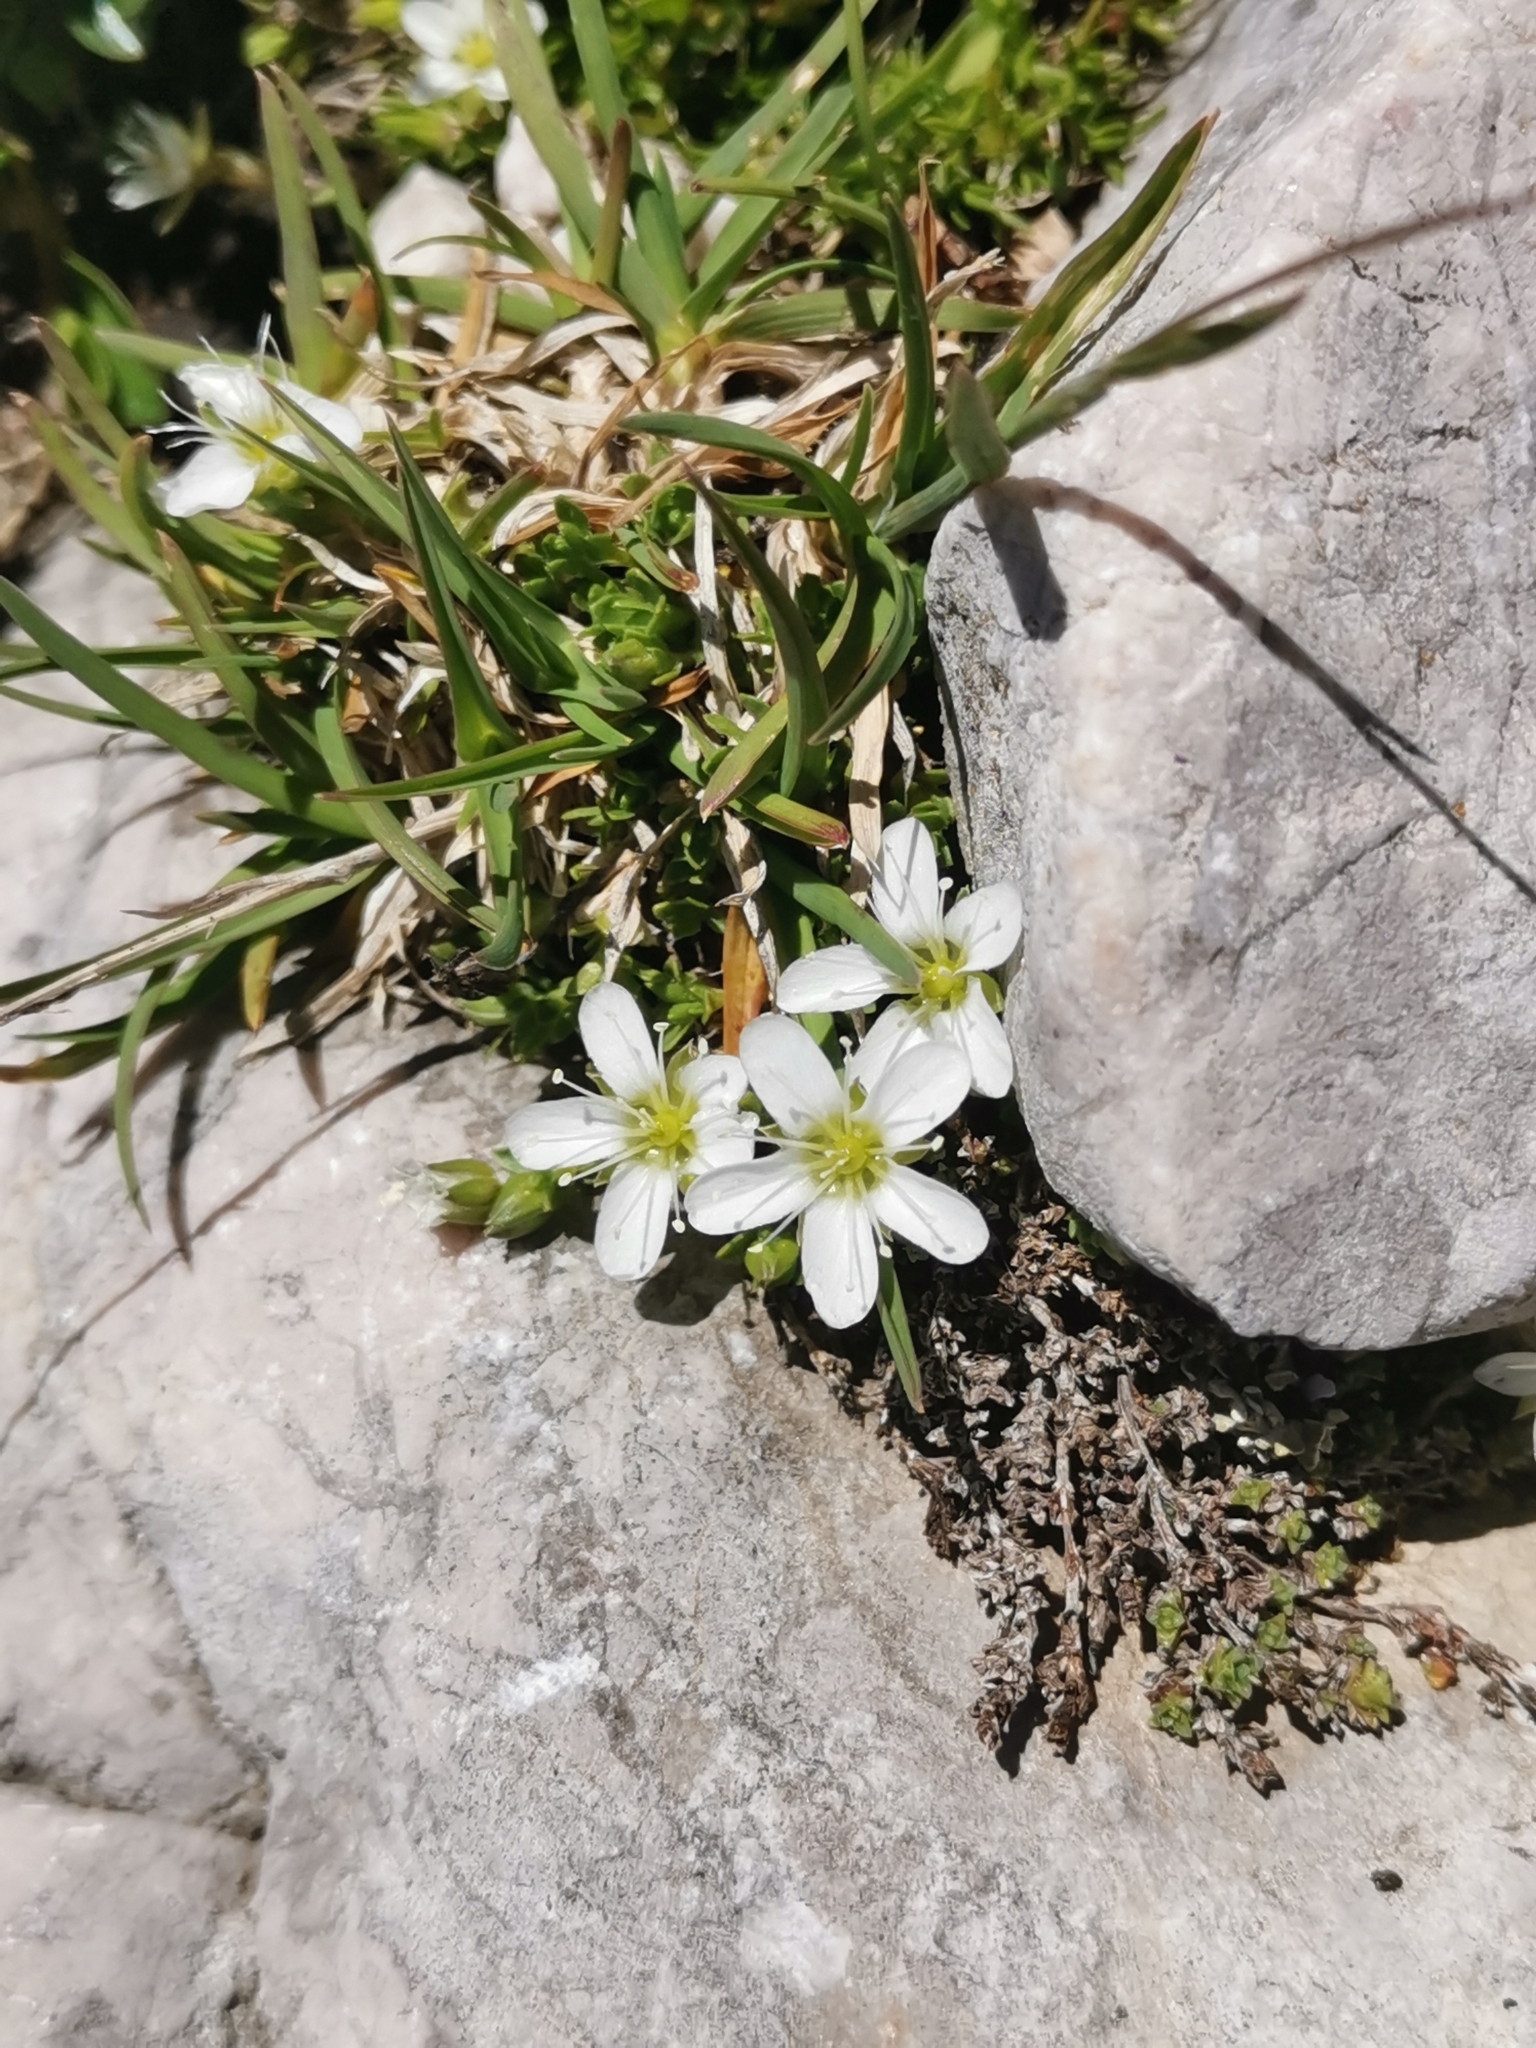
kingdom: Plantae
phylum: Tracheophyta
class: Magnoliopsida
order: Caryophyllales
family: Caryophyllaceae
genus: Arenaria
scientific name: Arenaria ciliata
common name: Fringed sandwort
